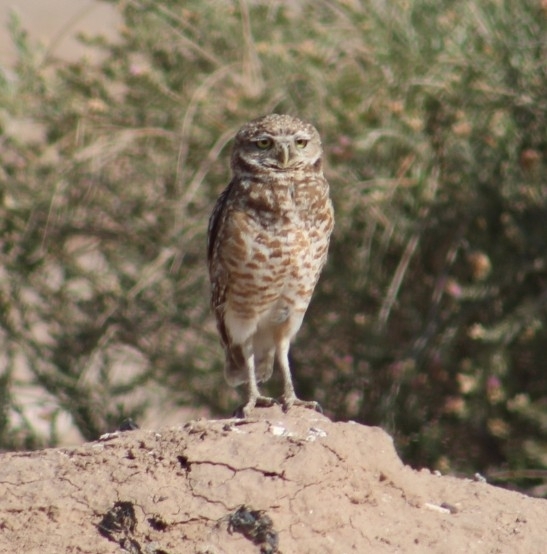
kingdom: Animalia
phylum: Chordata
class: Aves
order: Strigiformes
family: Strigidae
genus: Athene
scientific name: Athene cunicularia
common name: Burrowing owl
